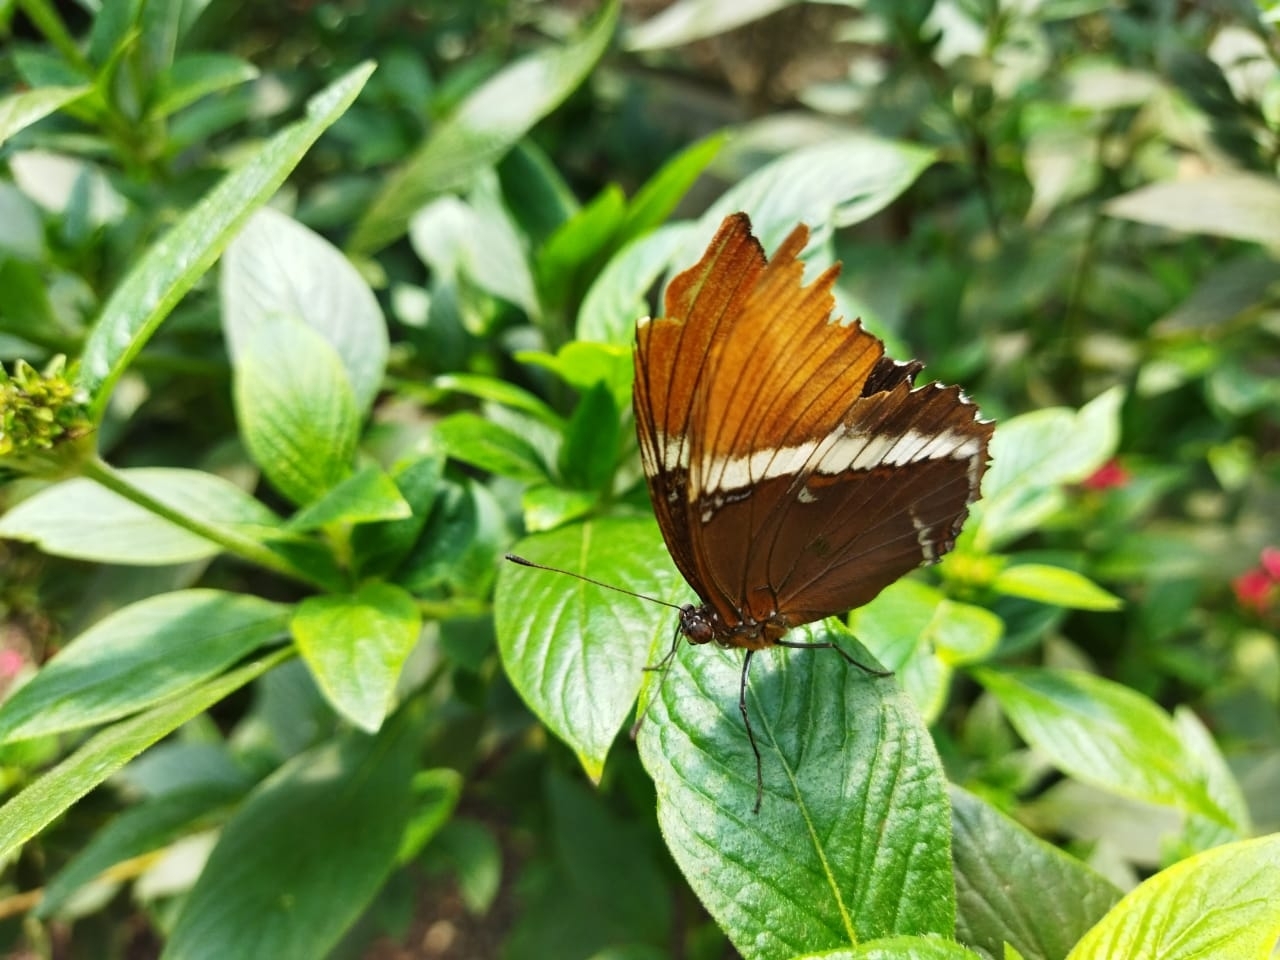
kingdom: Animalia
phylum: Arthropoda
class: Insecta
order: Lepidoptera
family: Nymphalidae
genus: Siproeta
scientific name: Siproeta epaphus
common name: Rusty-tipped page
